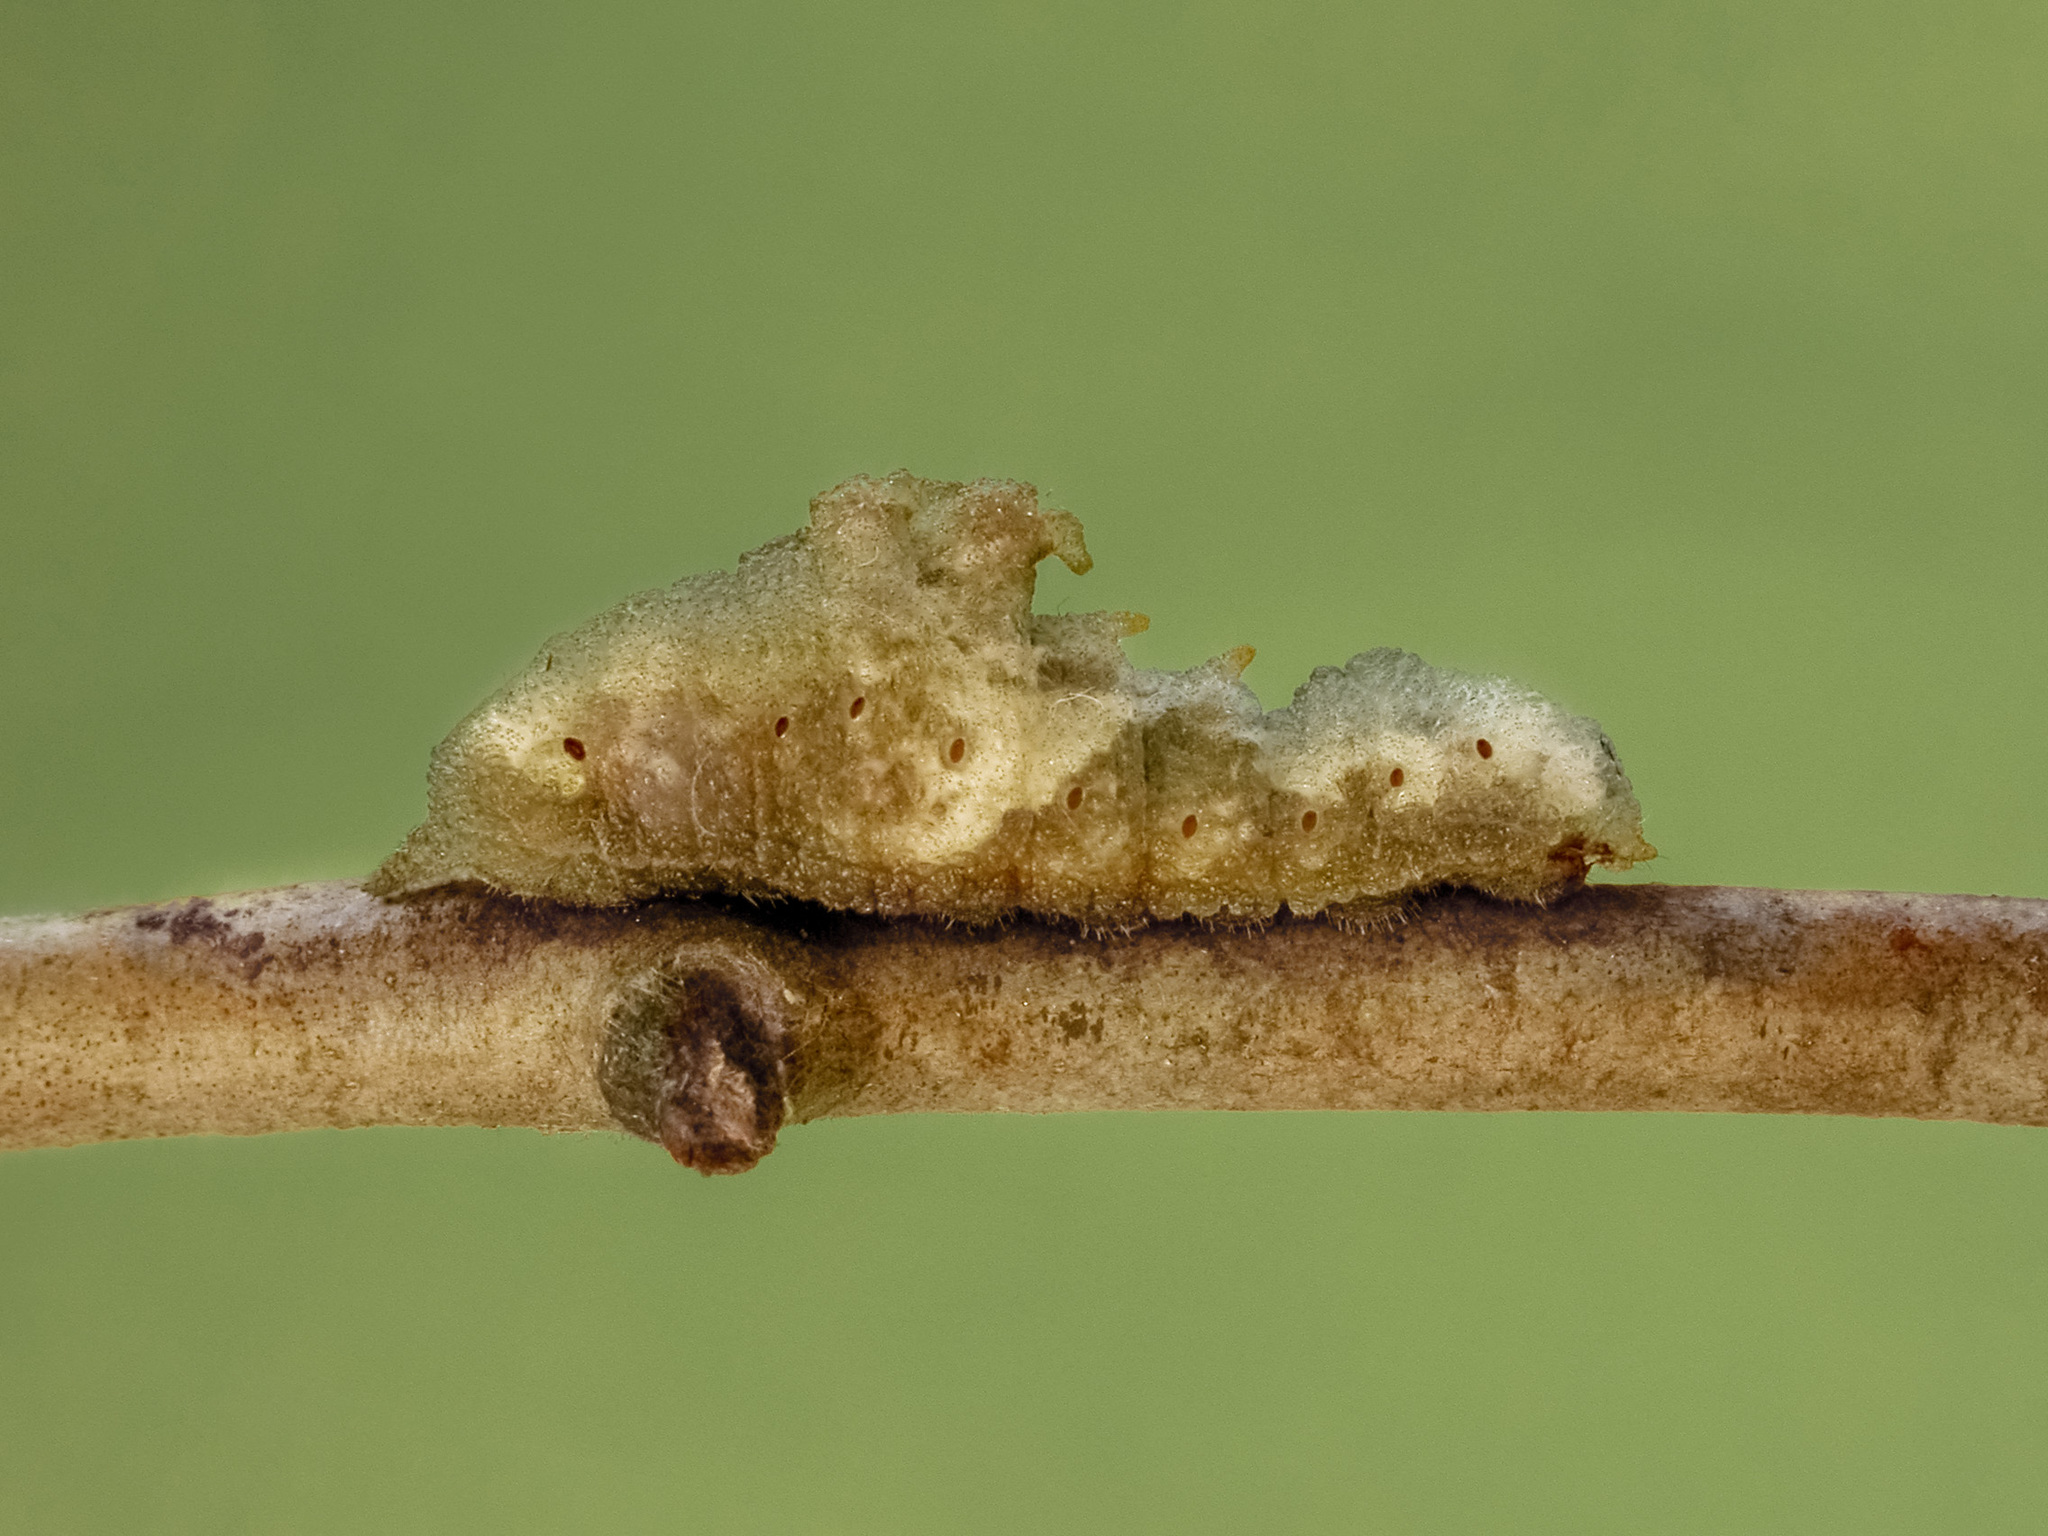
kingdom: Animalia
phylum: Arthropoda
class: Insecta
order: Lepidoptera
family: Lycaenidae
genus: Jacoona
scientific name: Jacoona anasuja
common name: Great imperial
